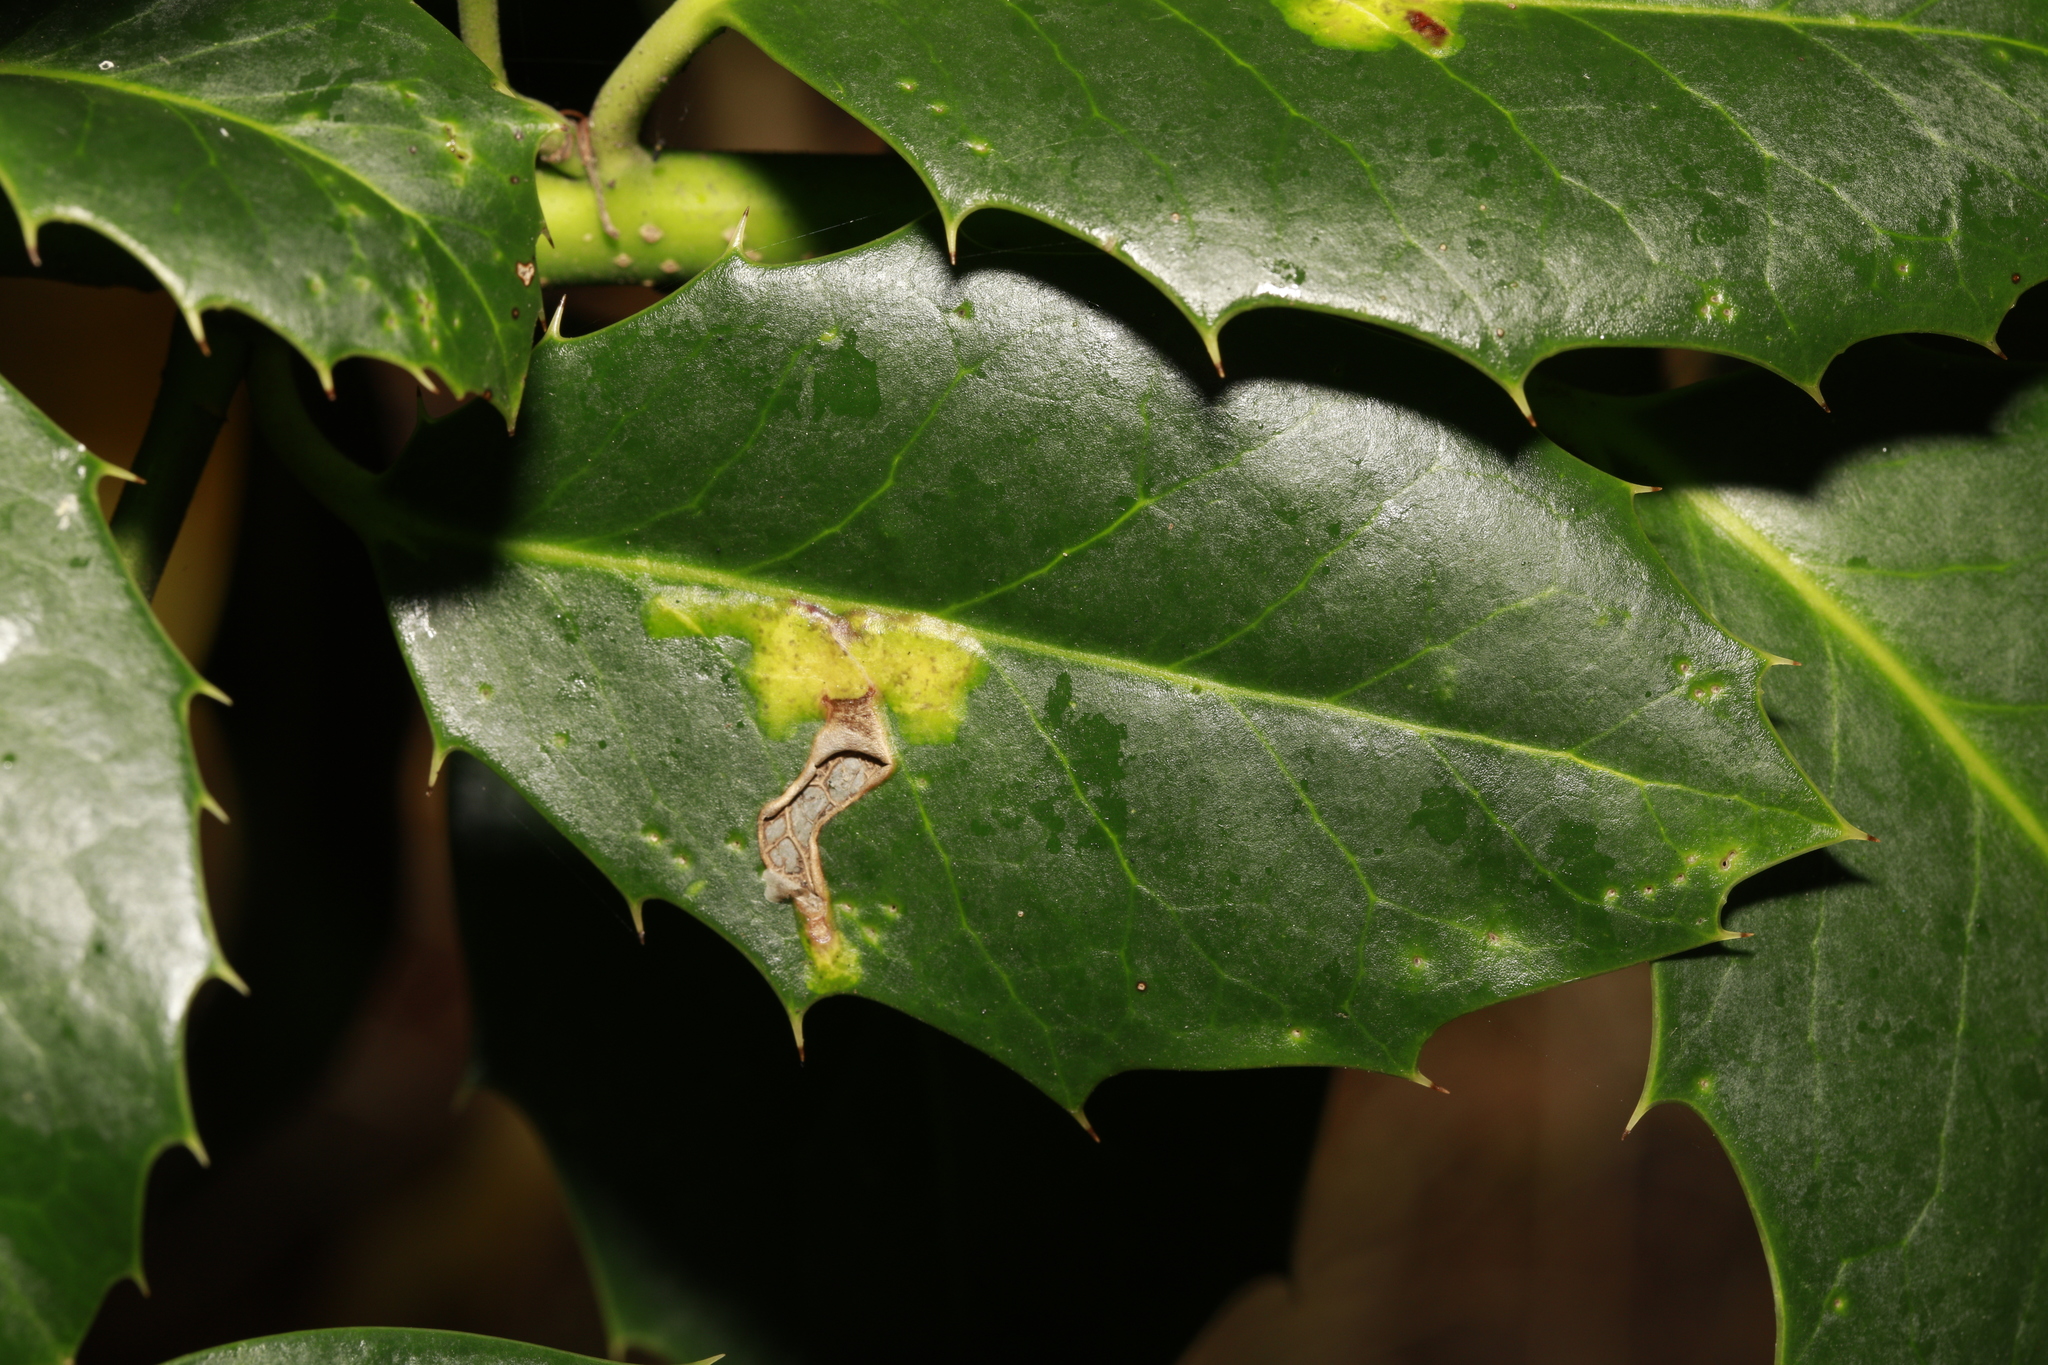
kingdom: Animalia
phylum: Arthropoda
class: Insecta
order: Diptera
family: Agromyzidae
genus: Phytomyza
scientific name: Phytomyza ilicis
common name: Holly leafminer
